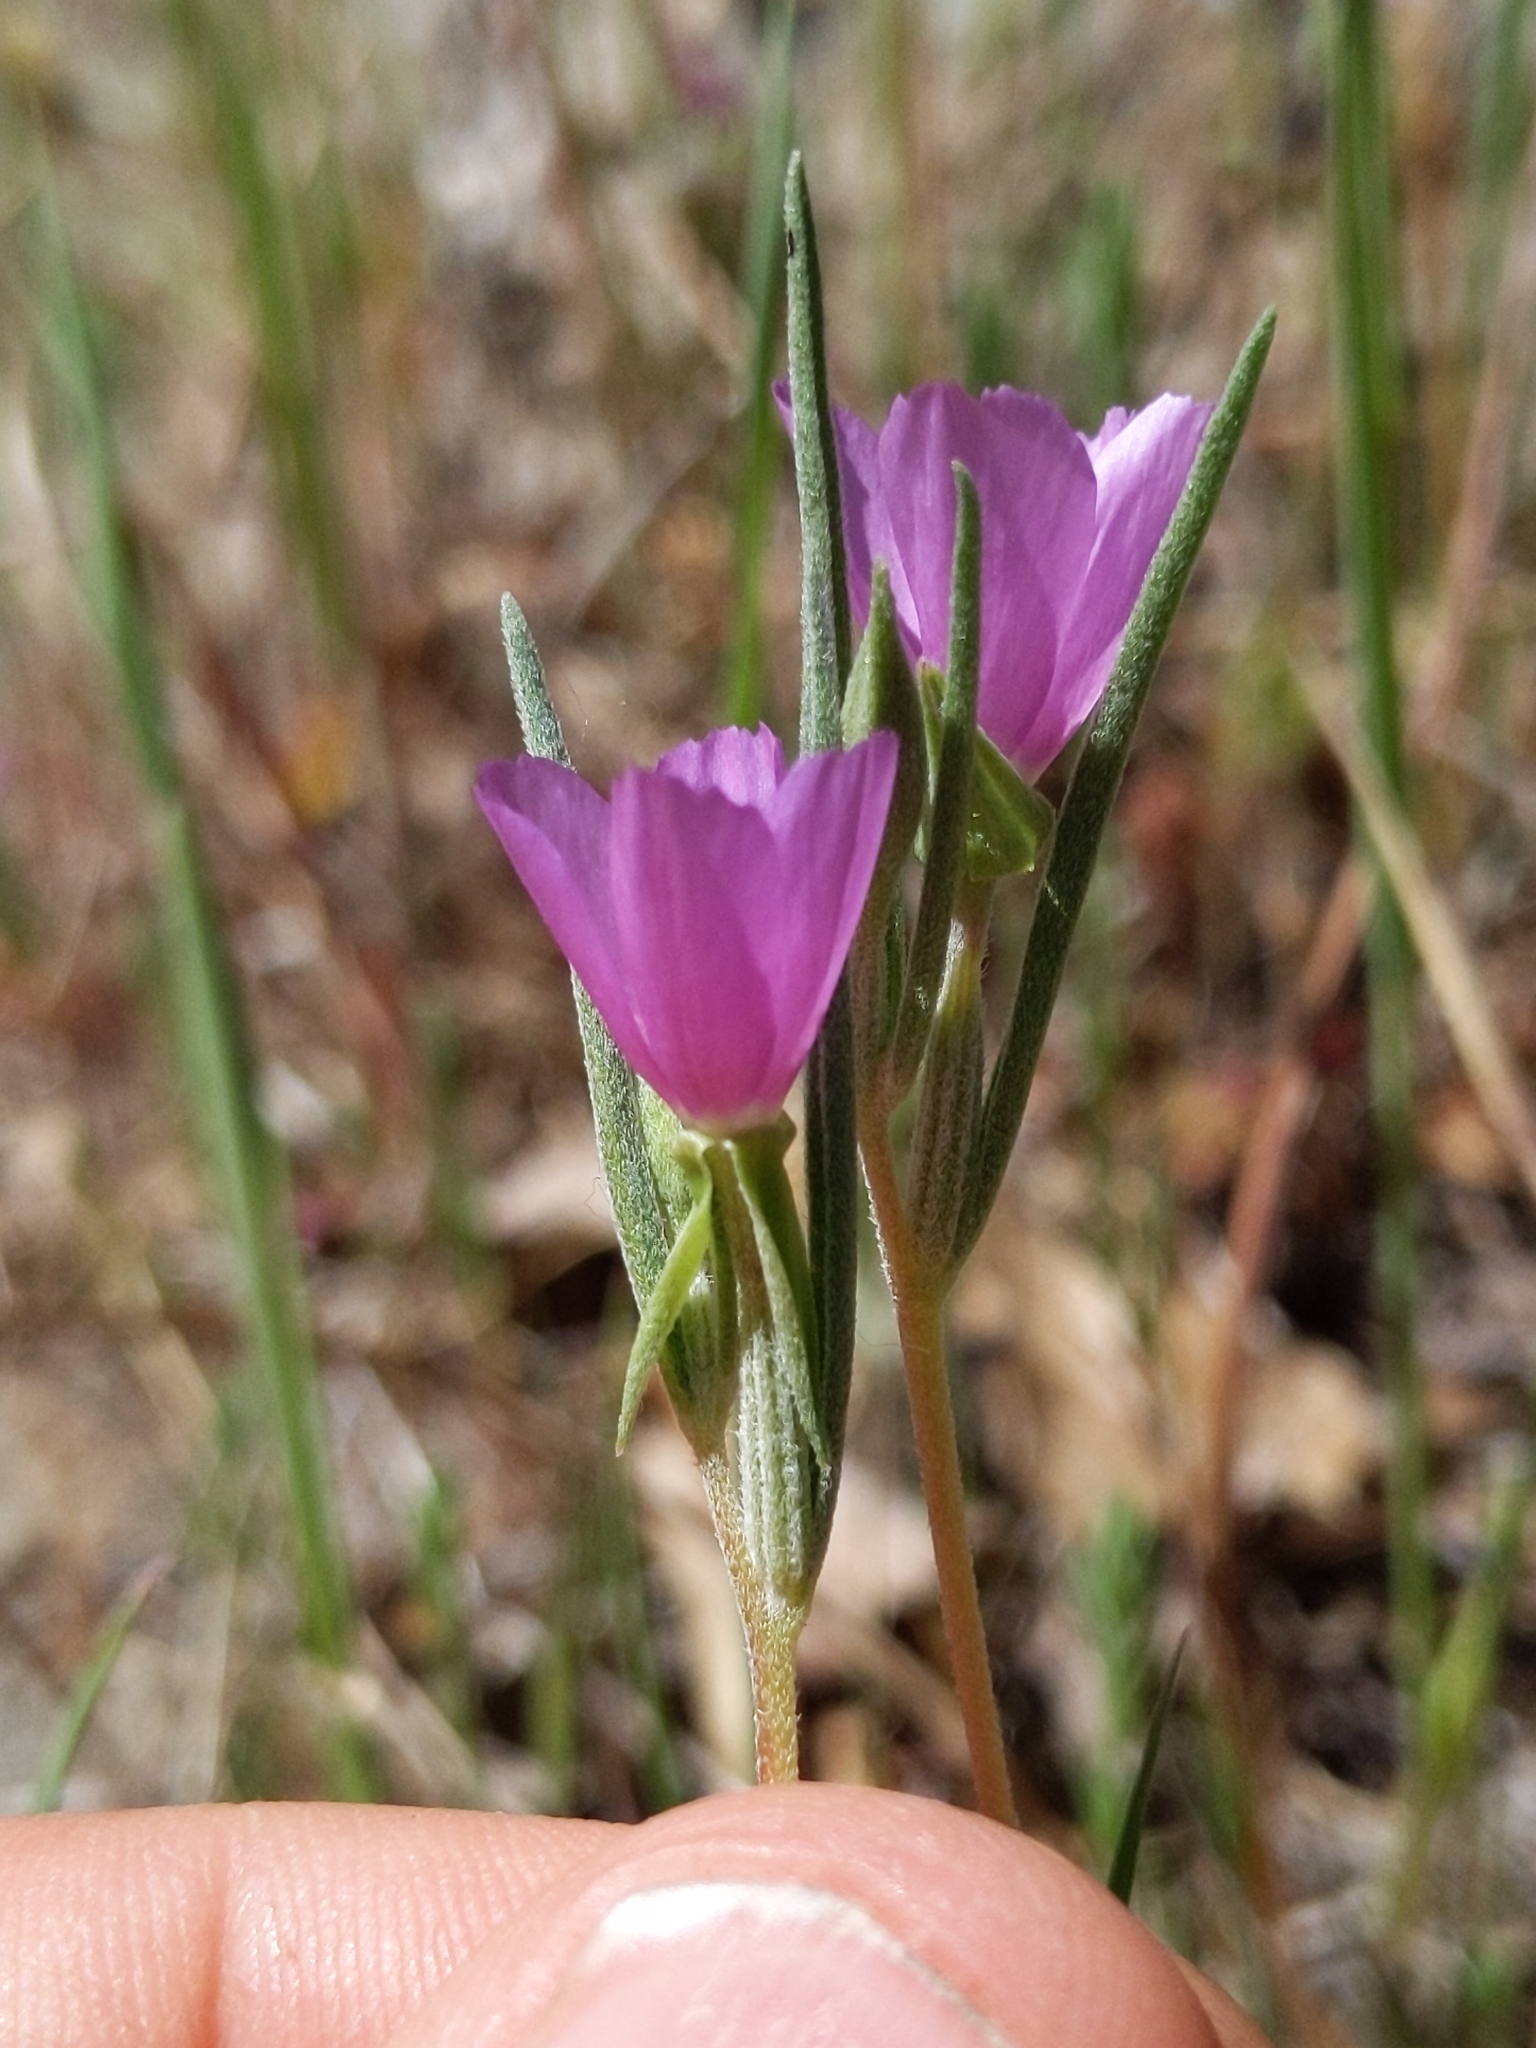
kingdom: Plantae
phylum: Tracheophyta
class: Magnoliopsida
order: Myrtales
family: Onagraceae
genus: Clarkia
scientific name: Clarkia purpurea
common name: Purple clarkia
